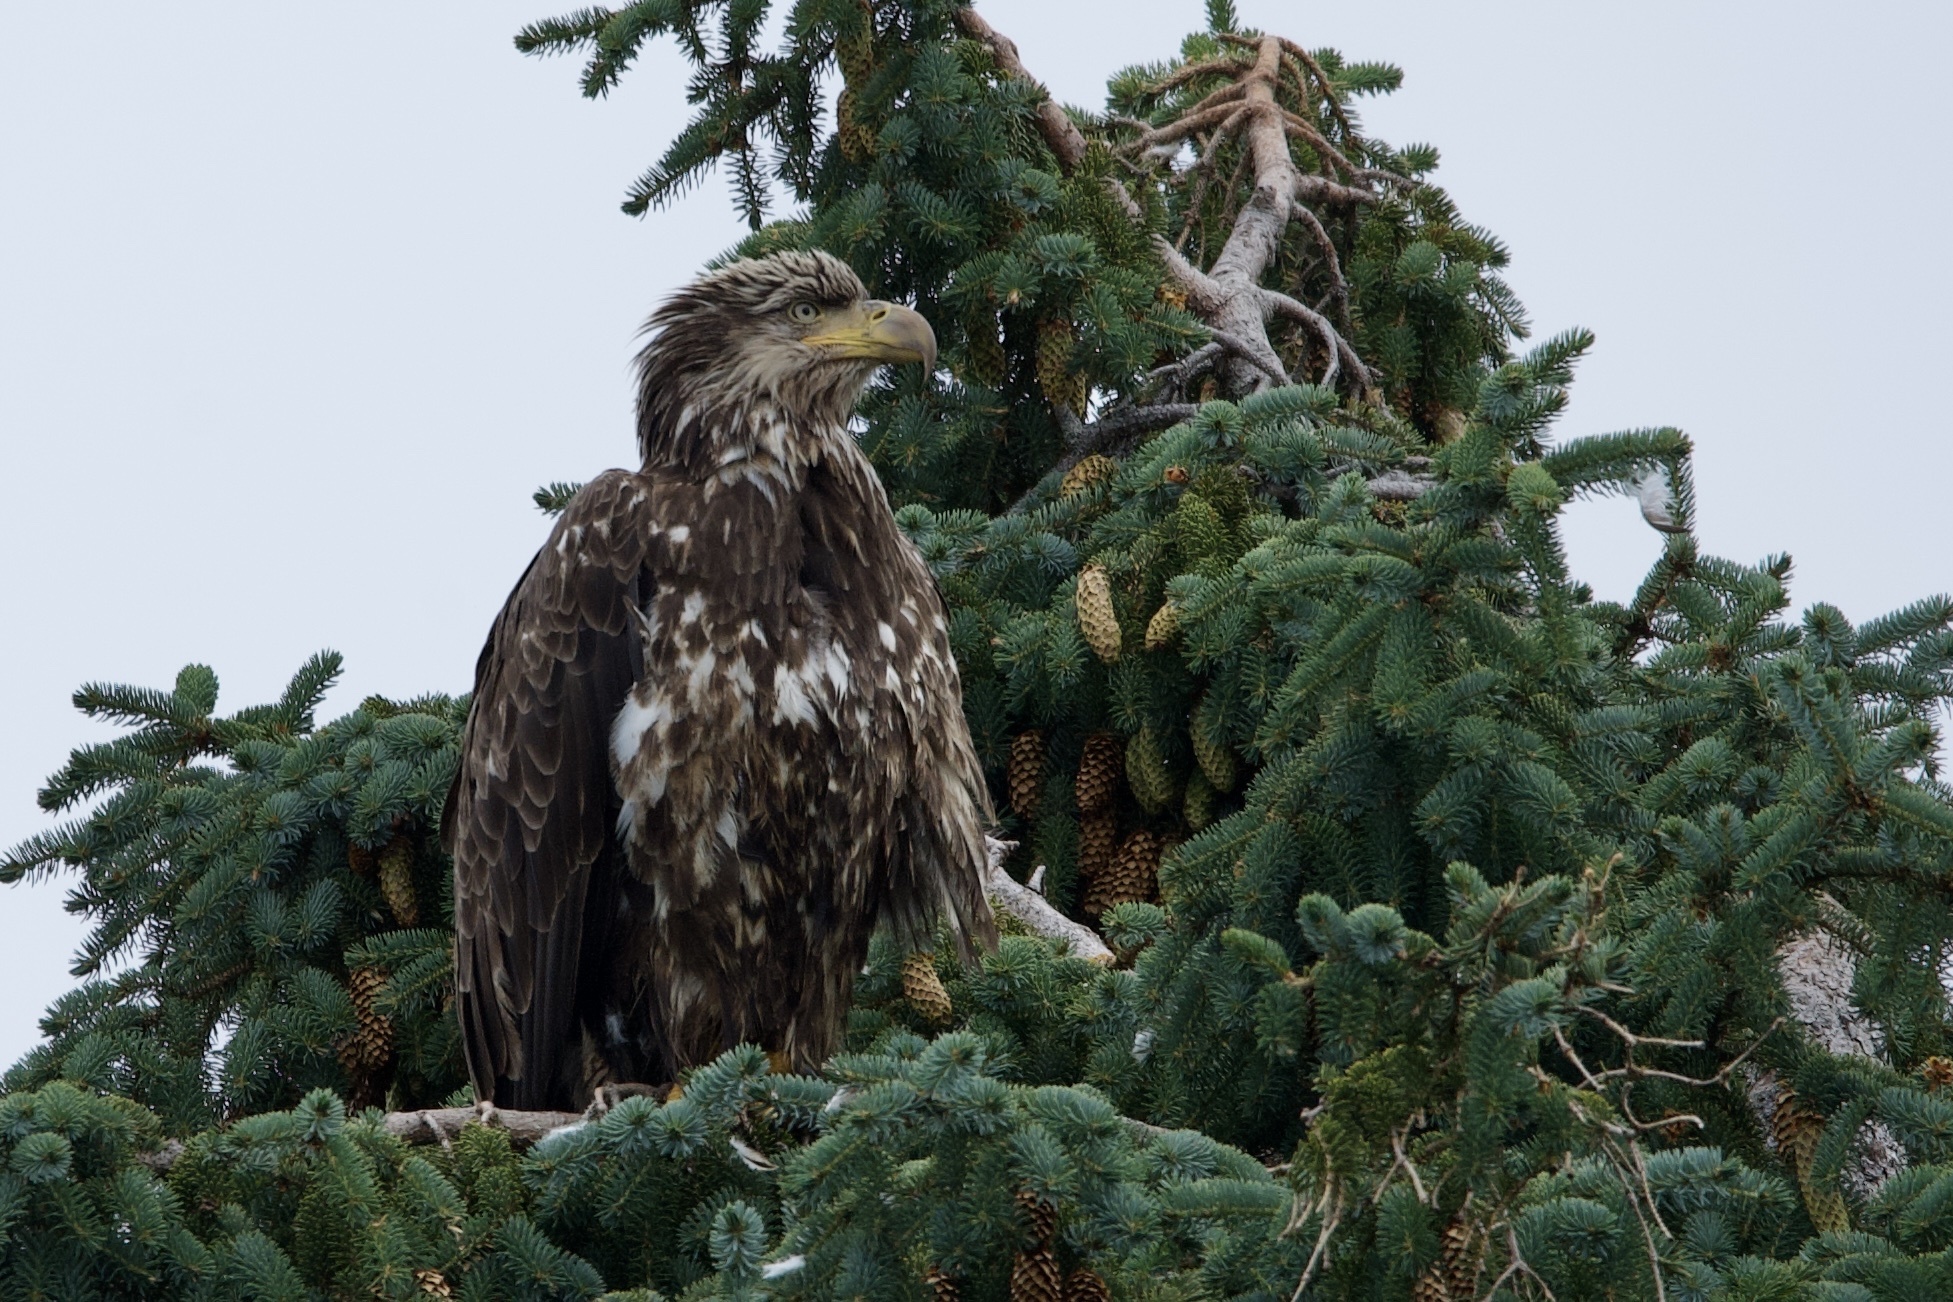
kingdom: Animalia
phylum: Chordata
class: Aves
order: Accipitriformes
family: Accipitridae
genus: Haliaeetus
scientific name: Haliaeetus leucocephalus
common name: Bald eagle
